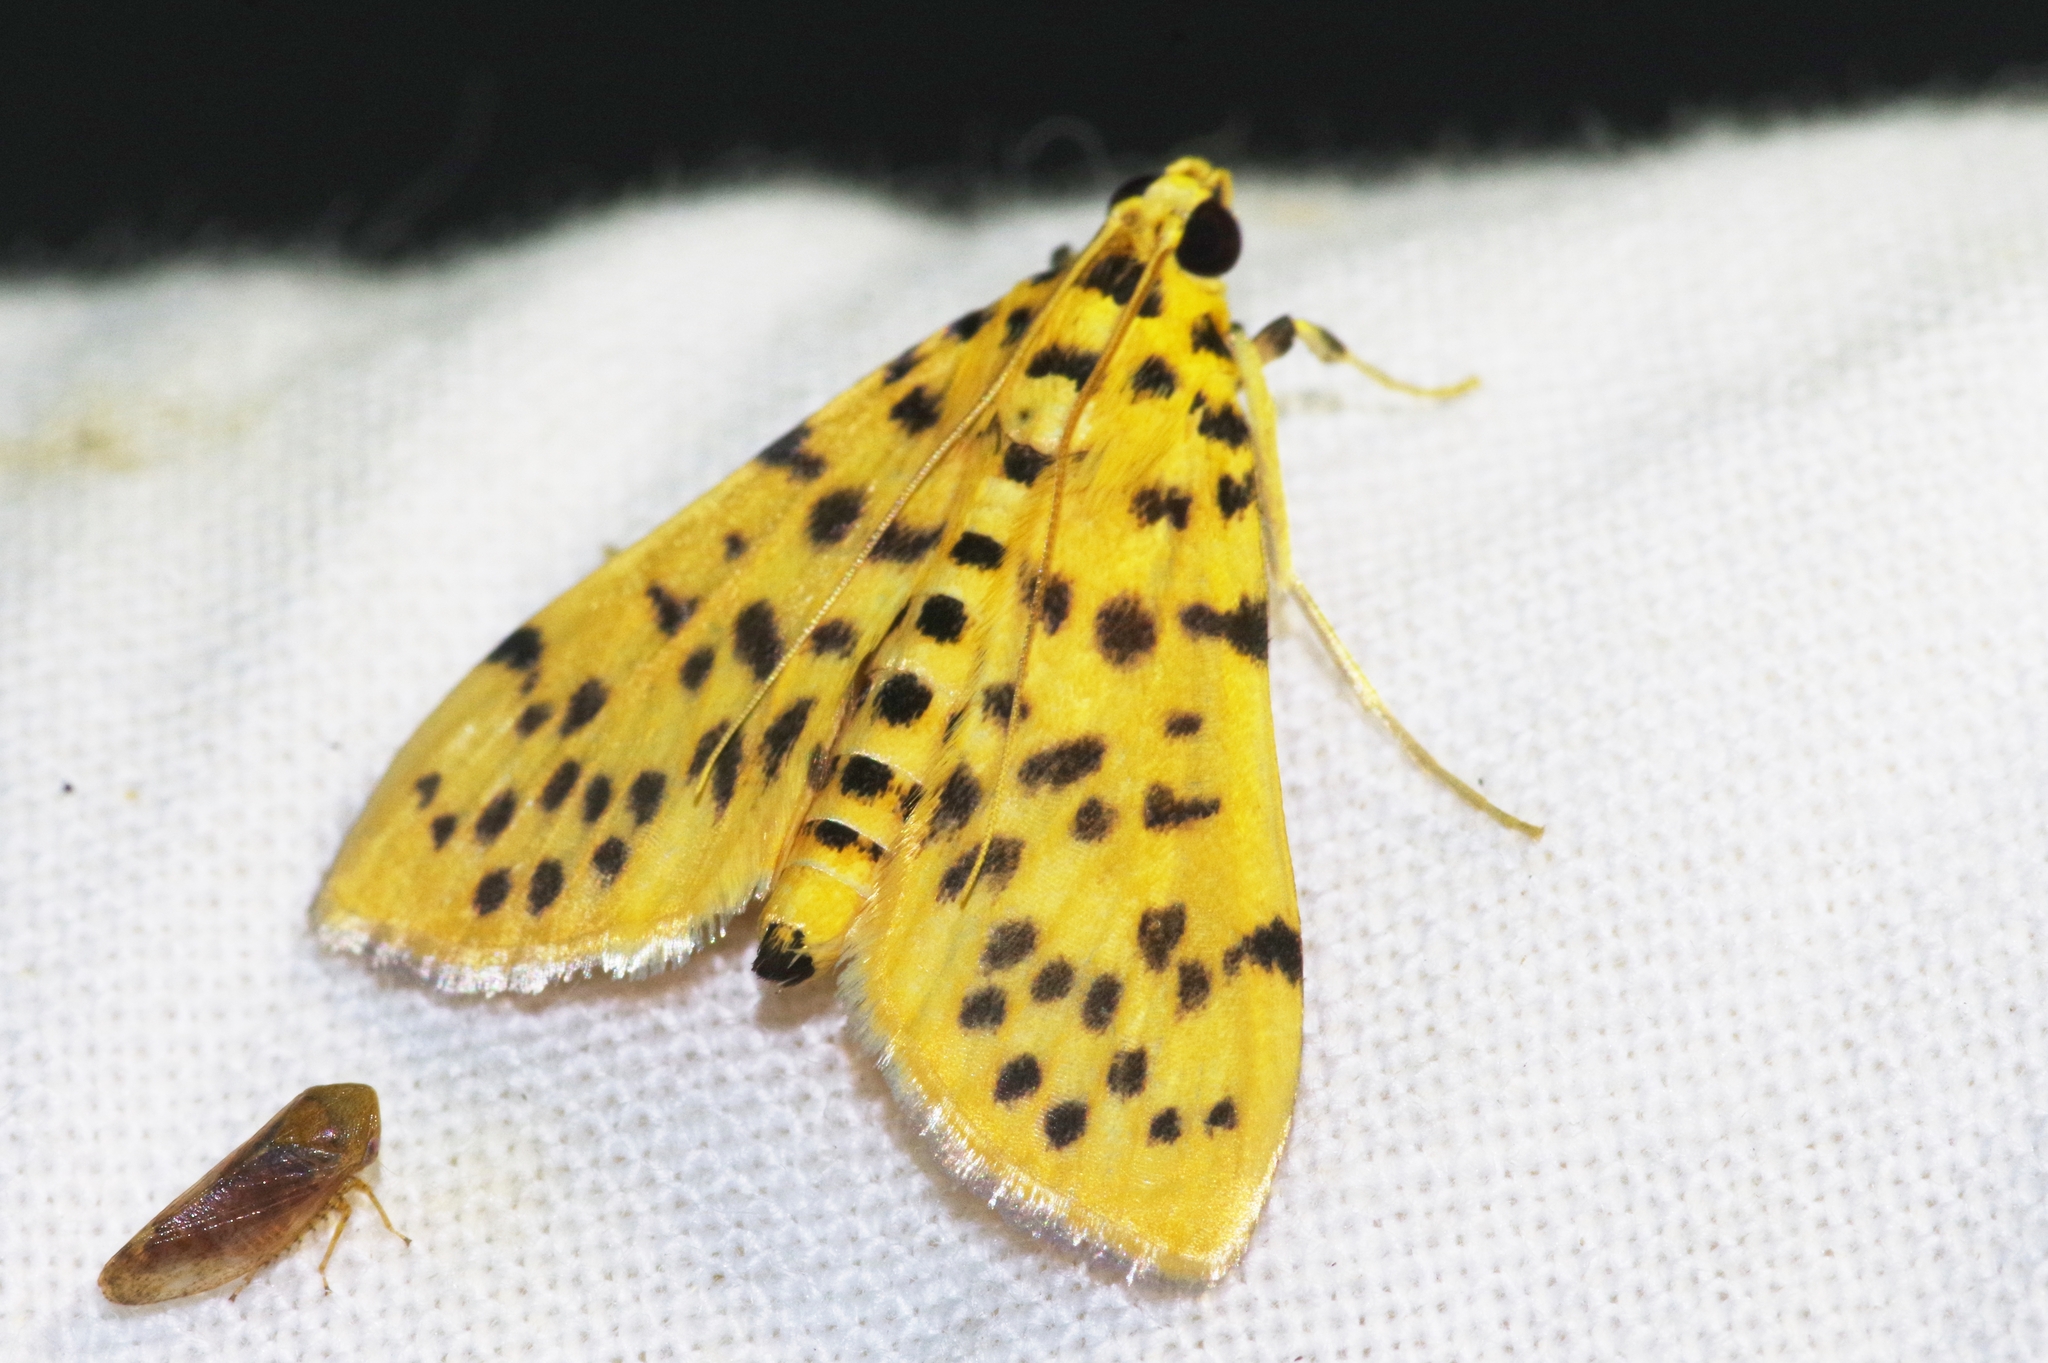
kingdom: Animalia
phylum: Arthropoda
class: Insecta
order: Lepidoptera
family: Crambidae
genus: Conogethes
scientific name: Conogethes pinicolalis
